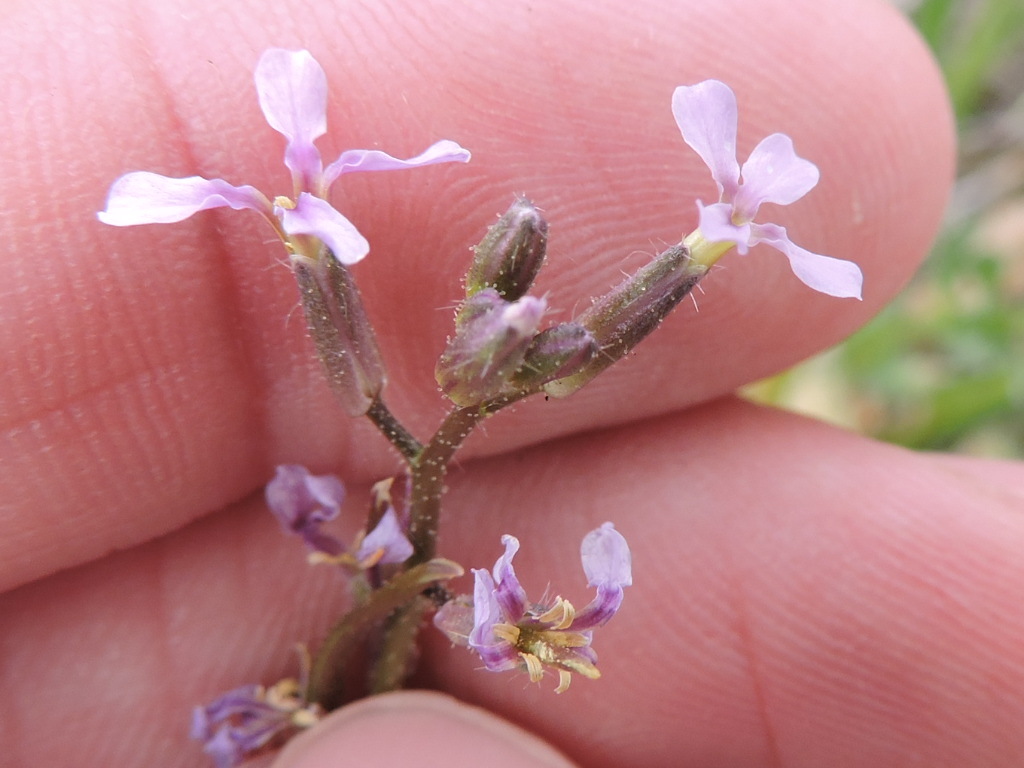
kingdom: Plantae
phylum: Tracheophyta
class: Magnoliopsida
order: Brassicales
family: Brassicaceae
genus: Chorispora
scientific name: Chorispora tenella
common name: Crossflower
